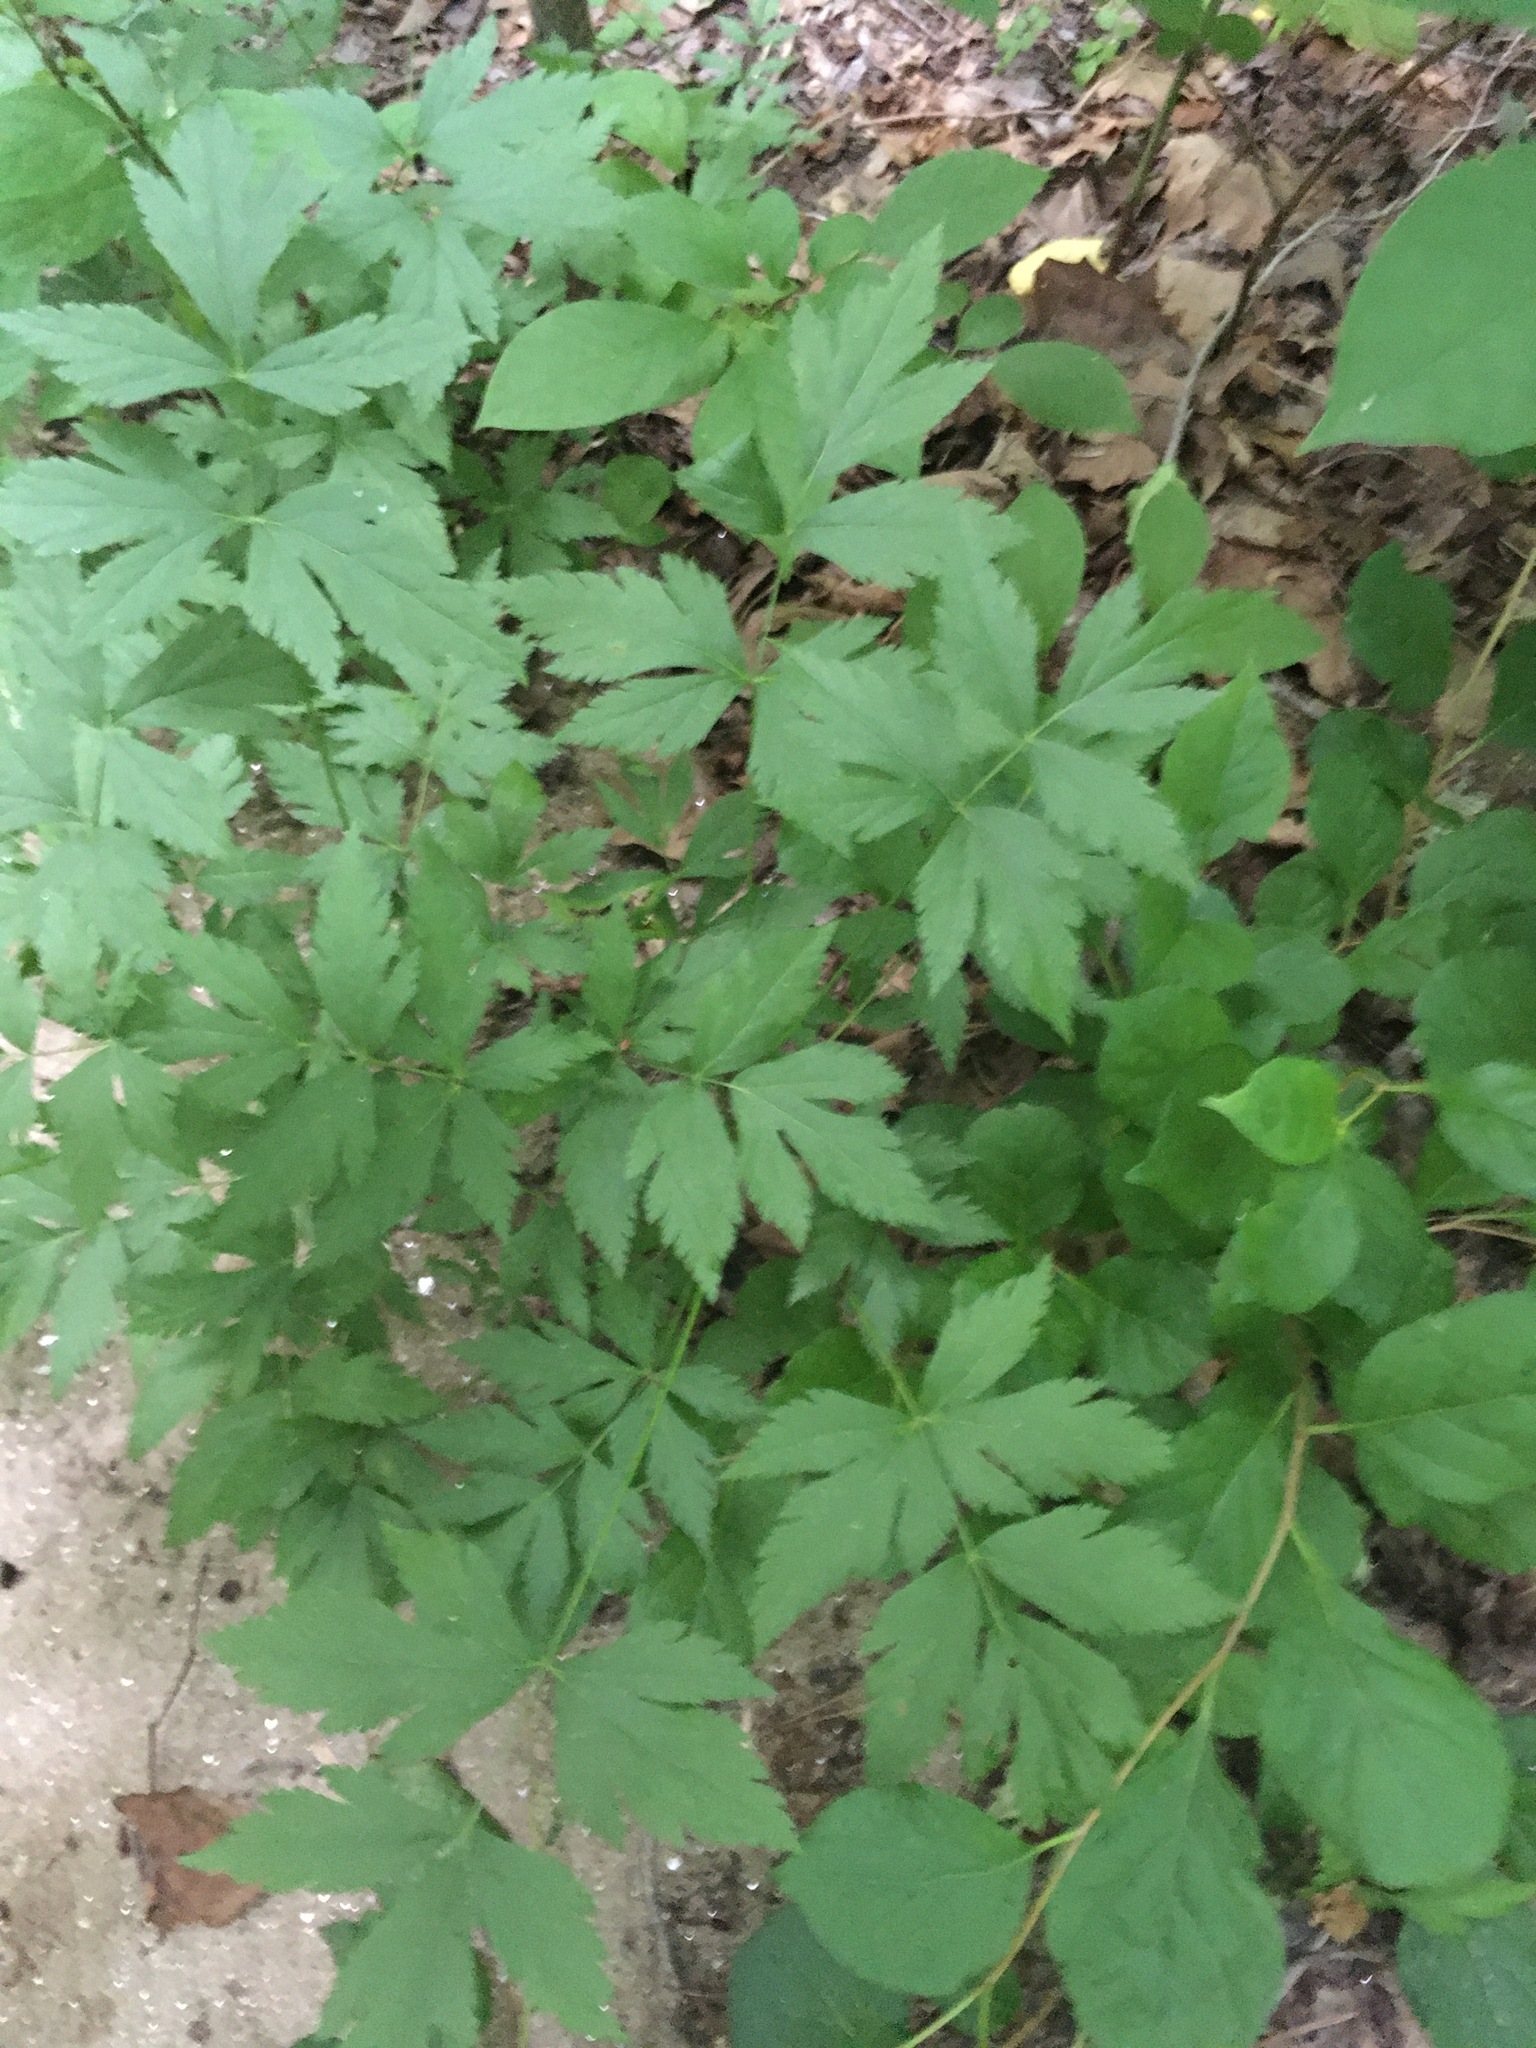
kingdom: Plantae
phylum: Tracheophyta
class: Magnoliopsida
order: Ranunculales
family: Ranunculaceae
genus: Xanthorhiza
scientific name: Xanthorhiza simplicissima
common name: Yellowroot
